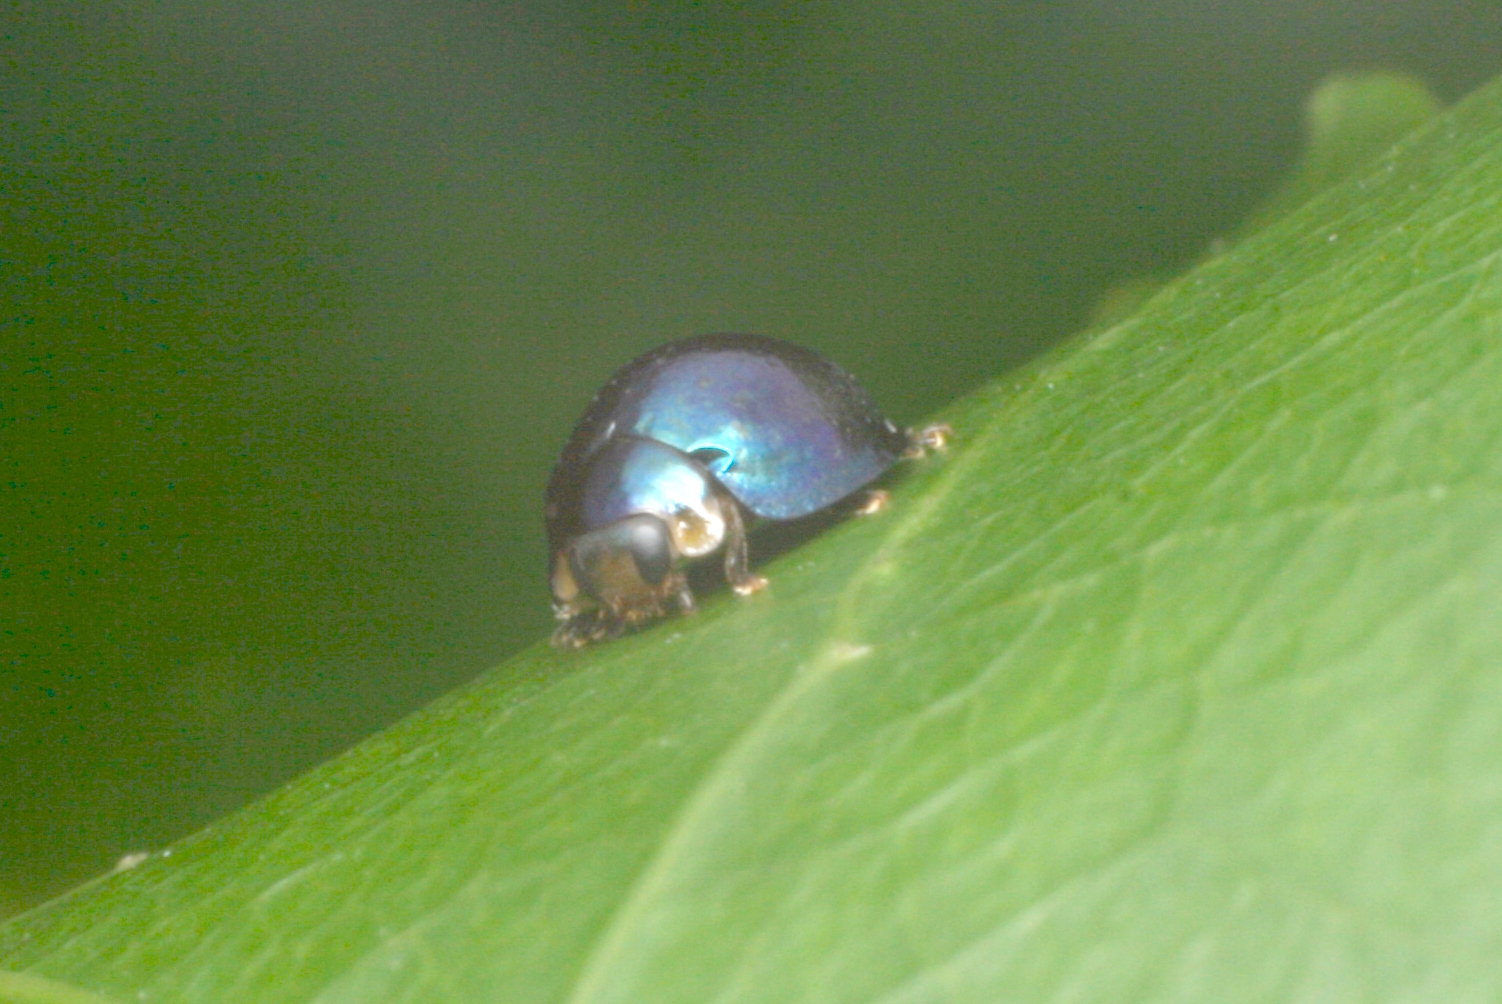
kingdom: Animalia
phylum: Arthropoda
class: Insecta
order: Coleoptera
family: Coccinellidae
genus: Halmus
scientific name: Halmus chalybeus
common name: Steel blue ladybird beetle
